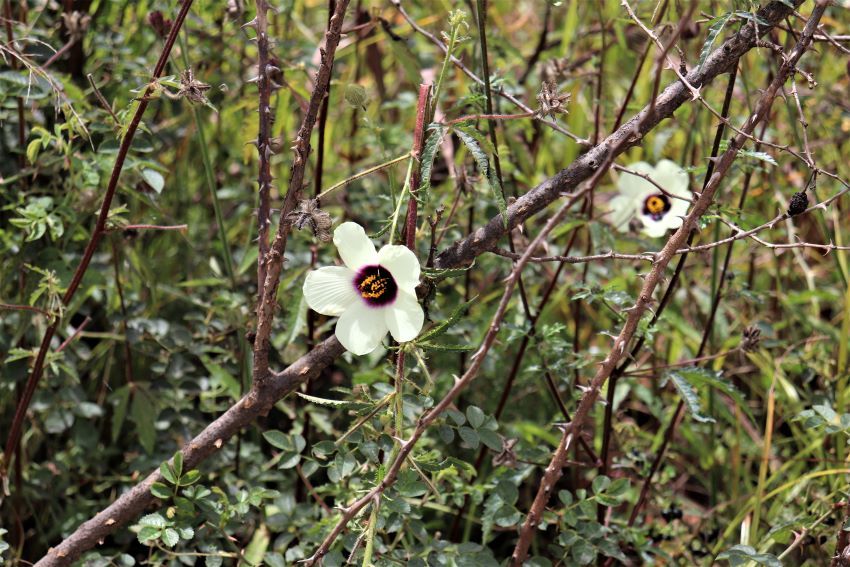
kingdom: Plantae
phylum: Tracheophyta
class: Magnoliopsida
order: Malvales
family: Malvaceae
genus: Hibiscus
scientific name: Hibiscus trionum
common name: Bladder ketmia
